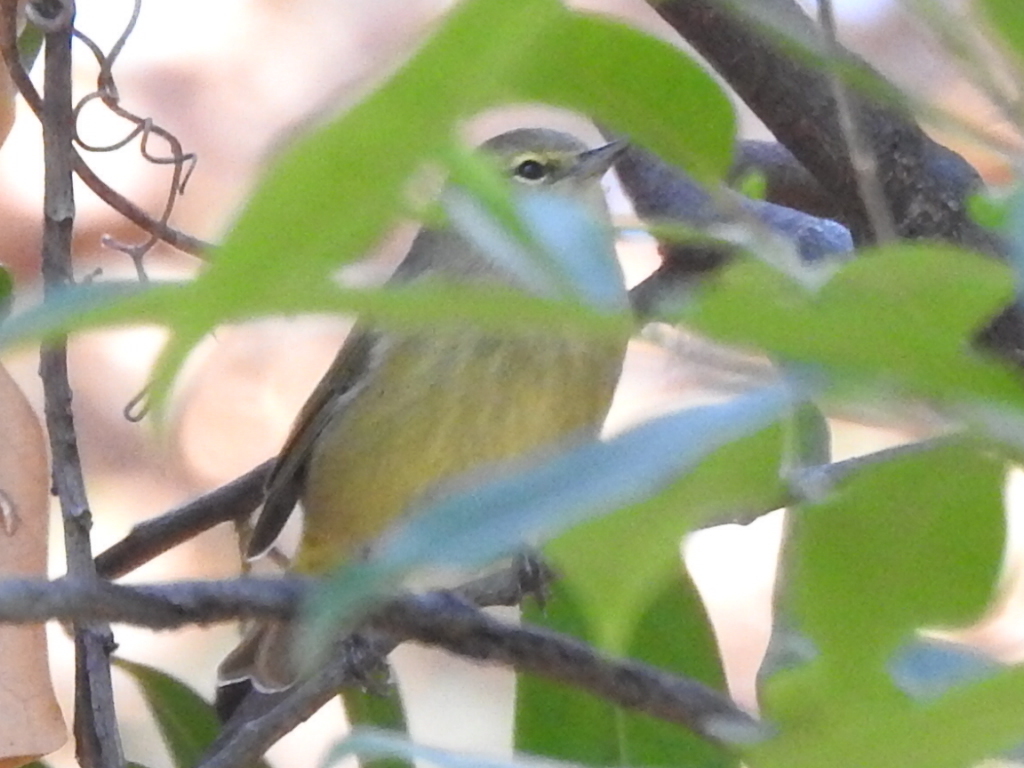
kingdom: Animalia
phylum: Chordata
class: Aves
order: Passeriformes
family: Parulidae
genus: Leiothlypis
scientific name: Leiothlypis celata
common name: Orange-crowned warbler
